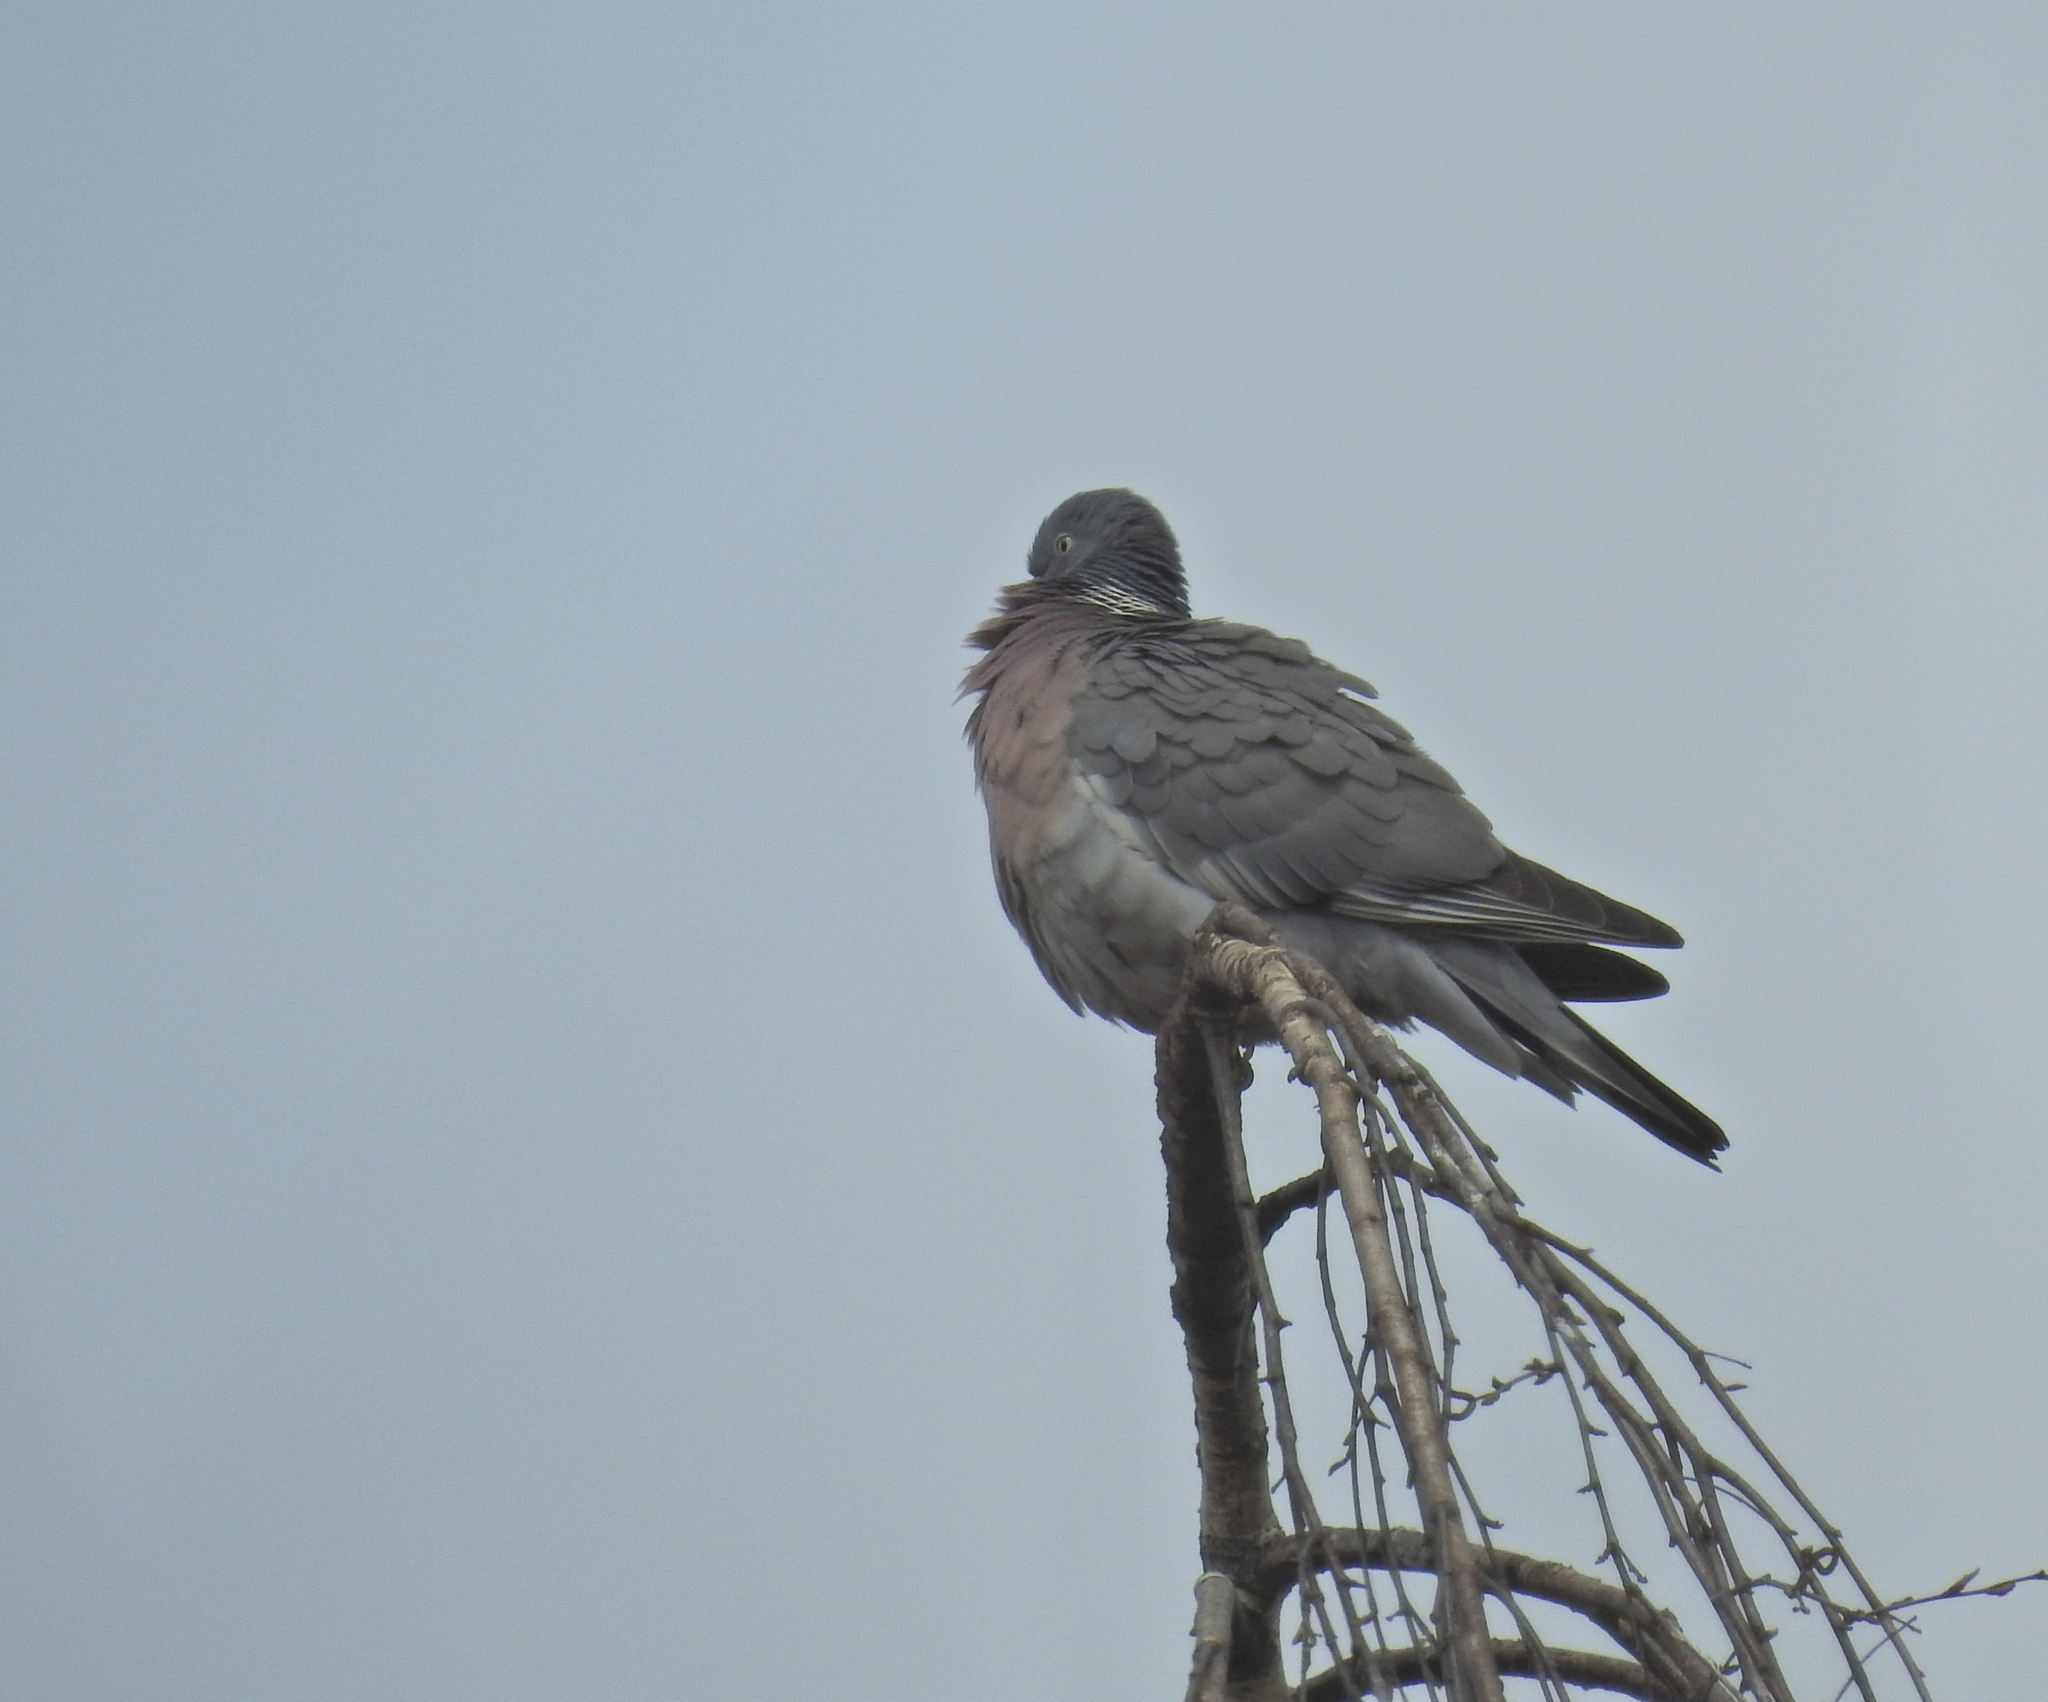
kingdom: Animalia
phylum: Chordata
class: Aves
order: Columbiformes
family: Columbidae
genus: Columba
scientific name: Columba palumbus
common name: Common wood pigeon
